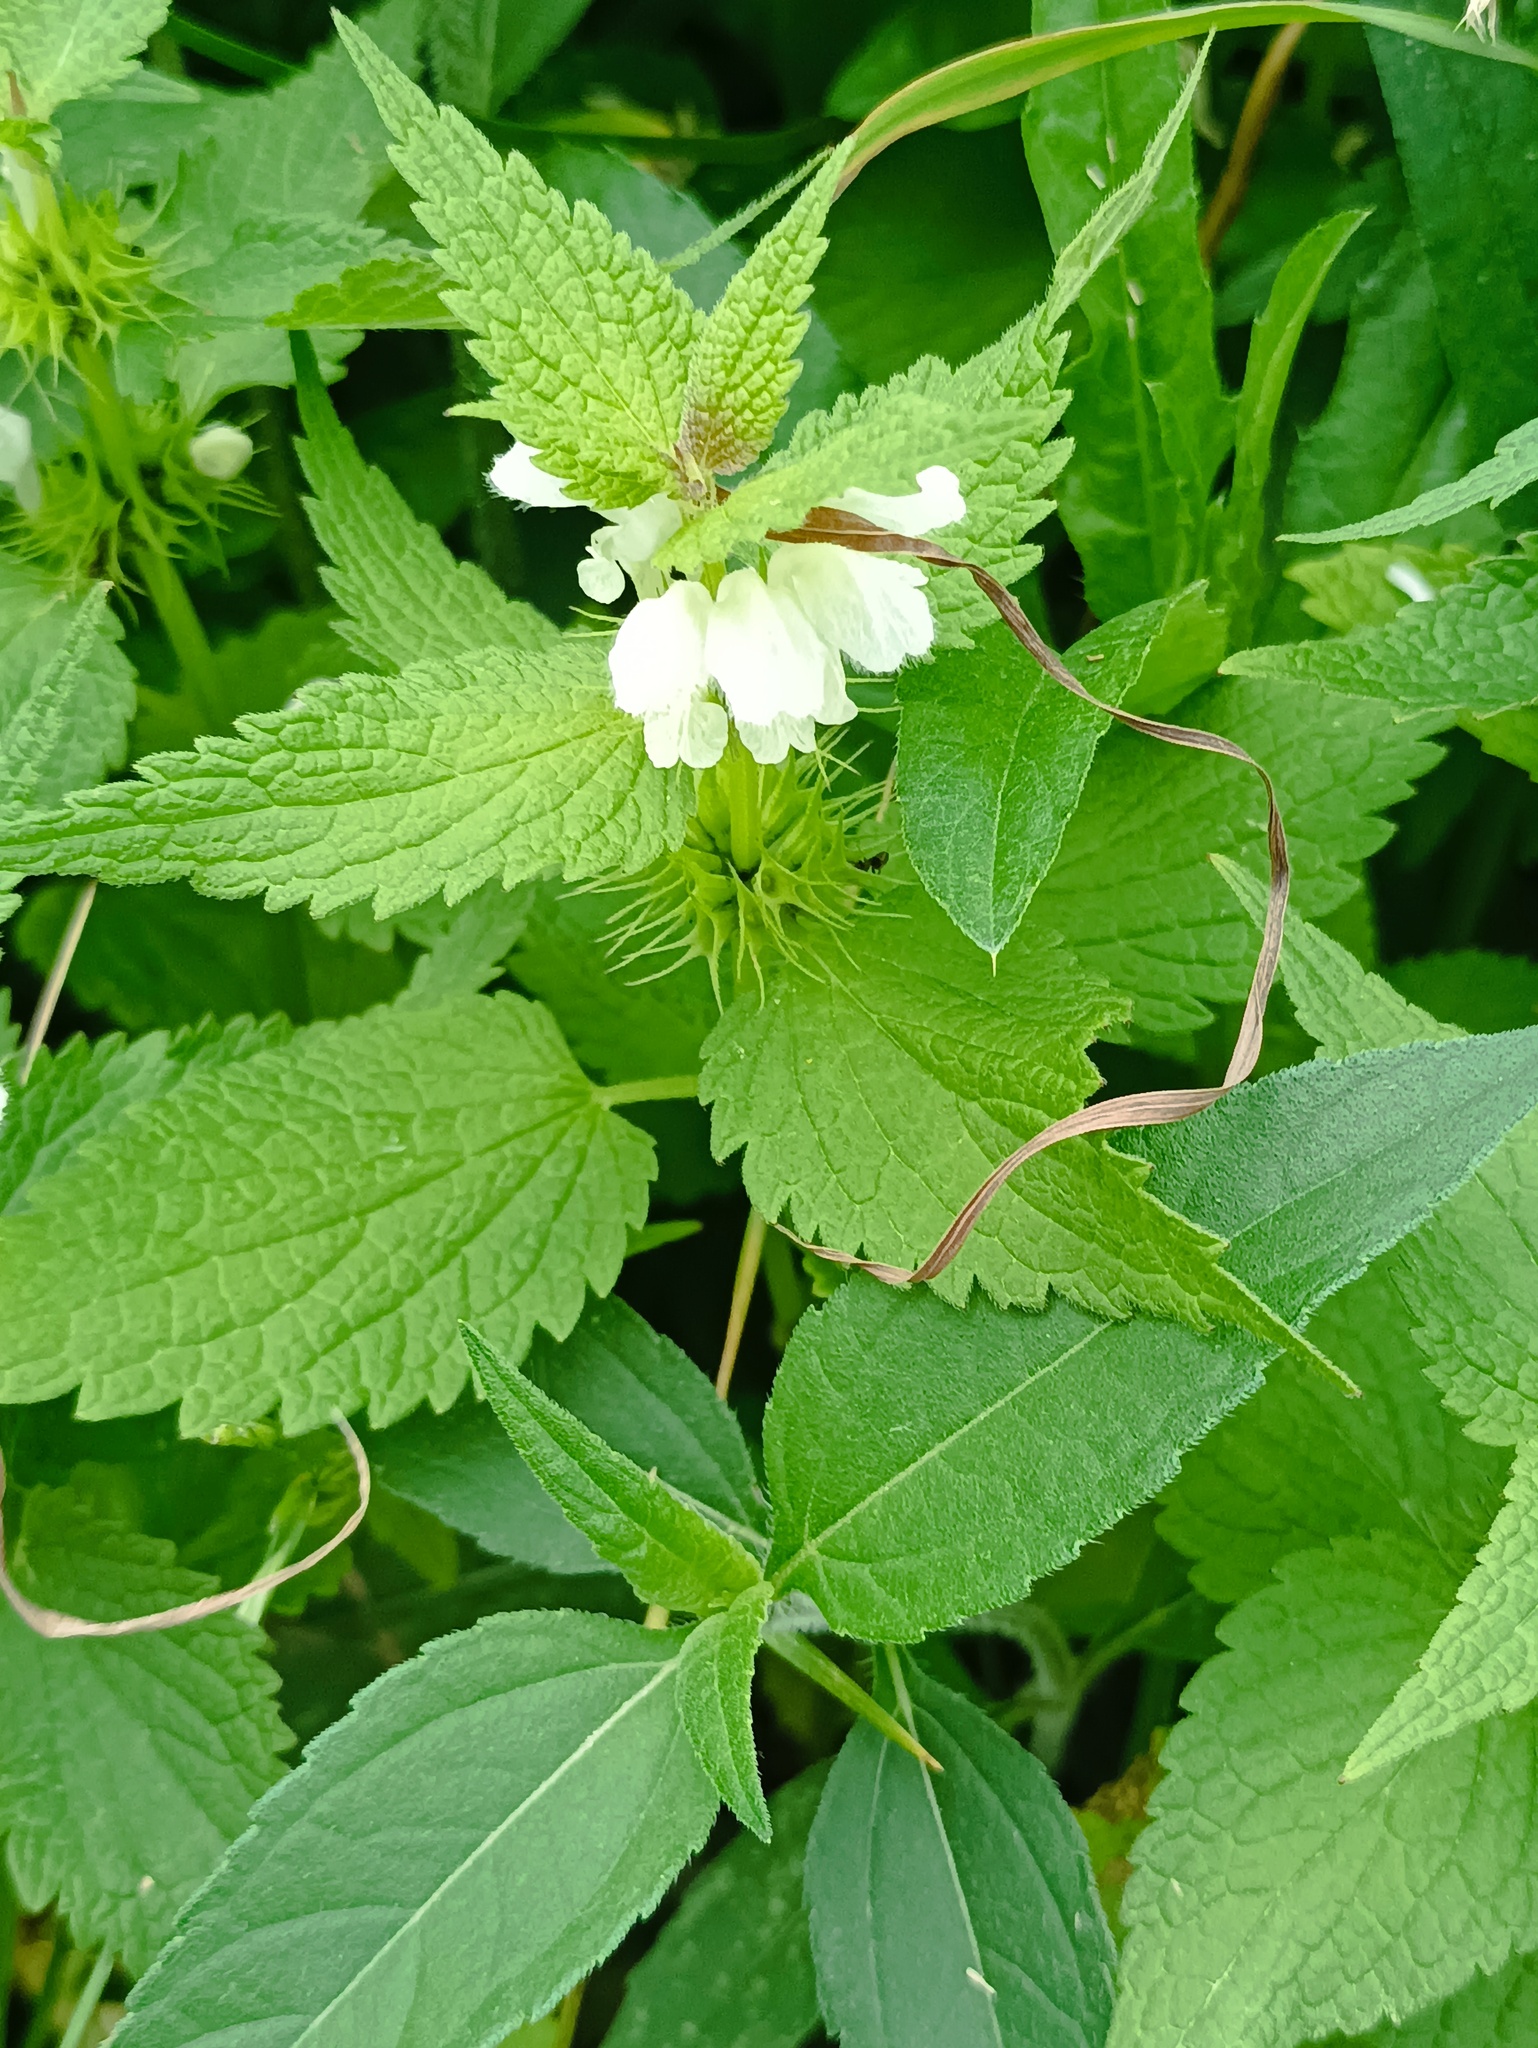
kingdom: Plantae
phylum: Tracheophyta
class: Magnoliopsida
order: Lamiales
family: Lamiaceae
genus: Lamium
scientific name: Lamium album
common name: White dead-nettle
